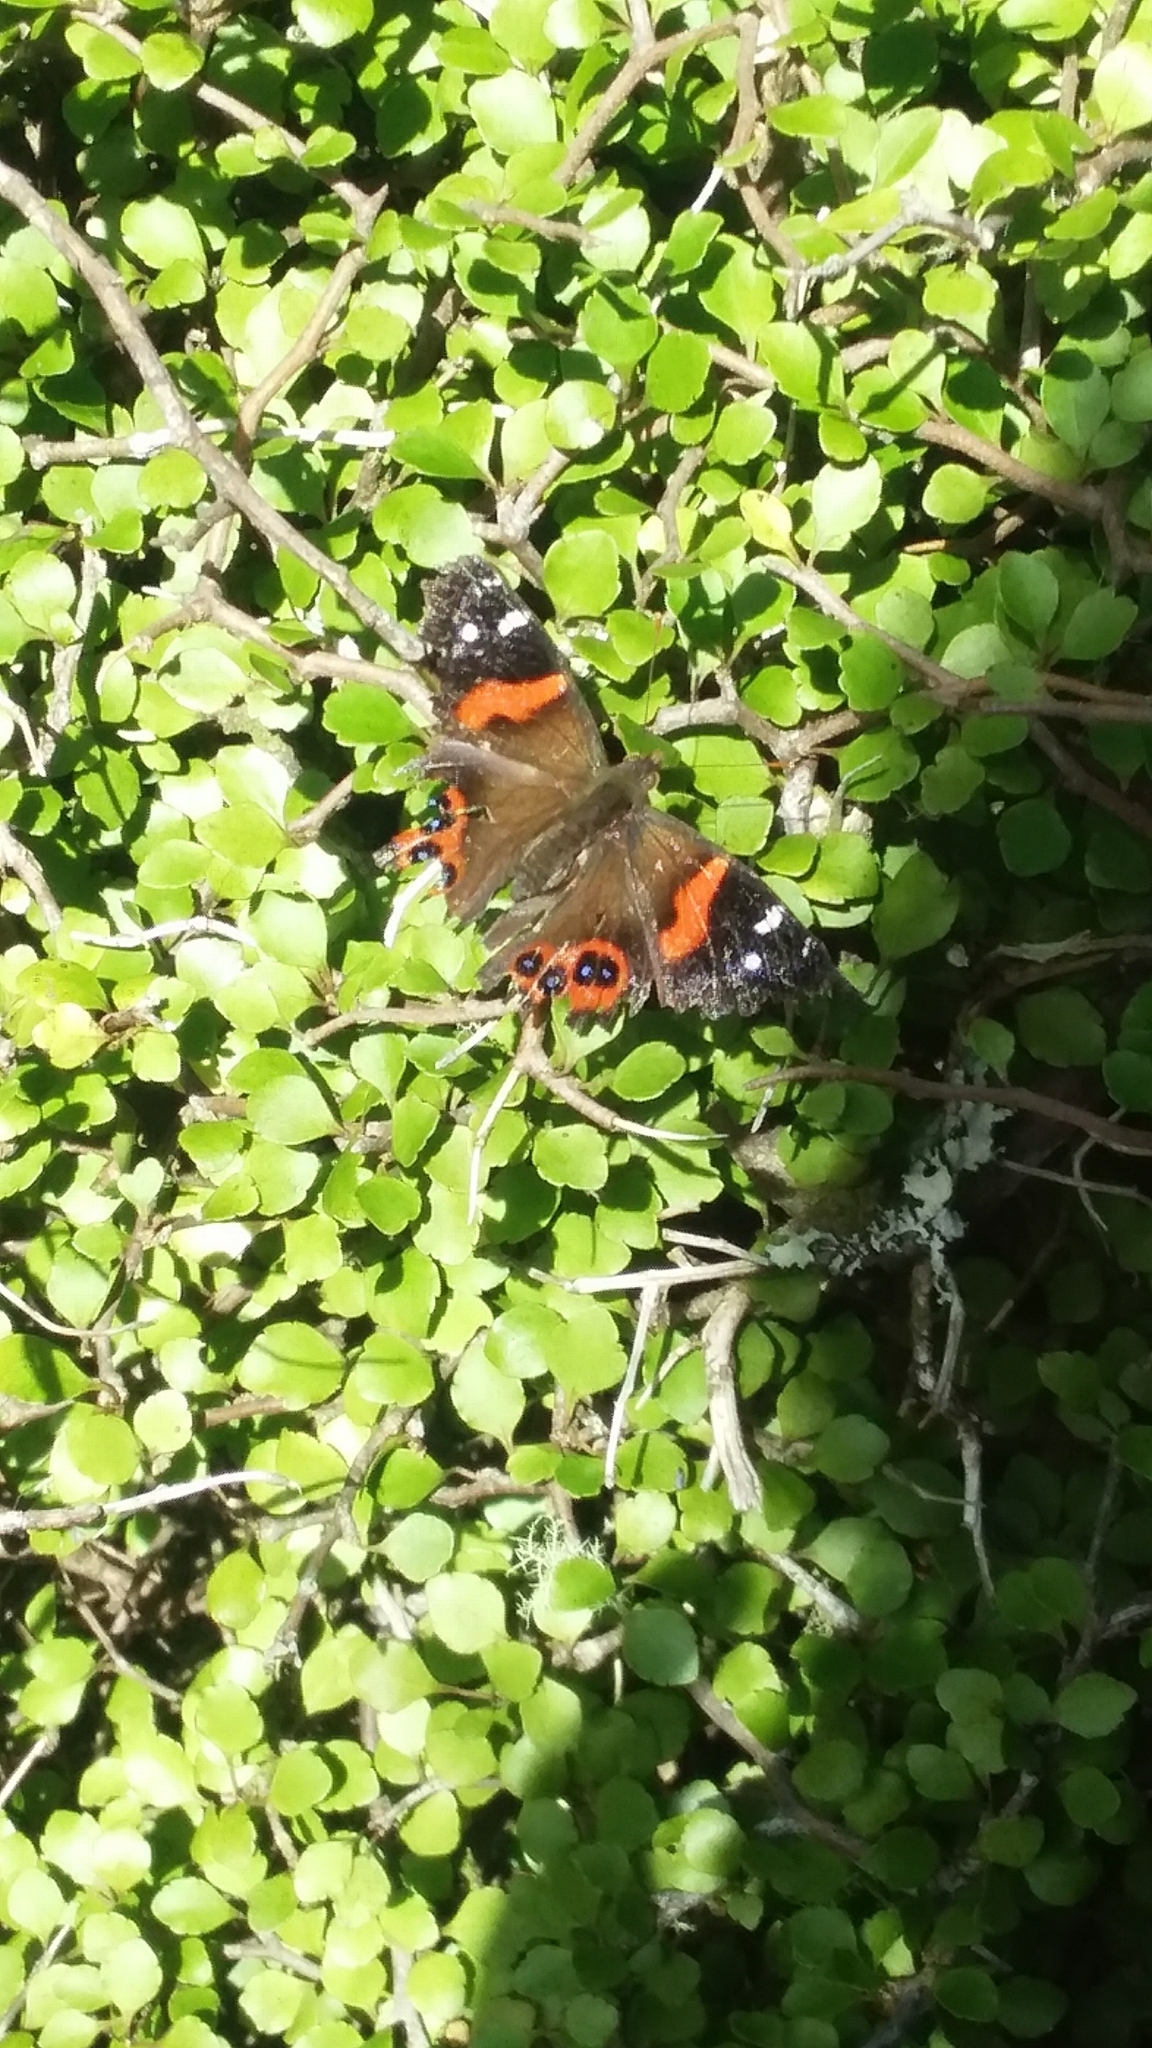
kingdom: Animalia
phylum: Arthropoda
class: Insecta
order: Lepidoptera
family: Nymphalidae
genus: Vanessa
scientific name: Vanessa gonerilla
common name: New zealand red admiral
